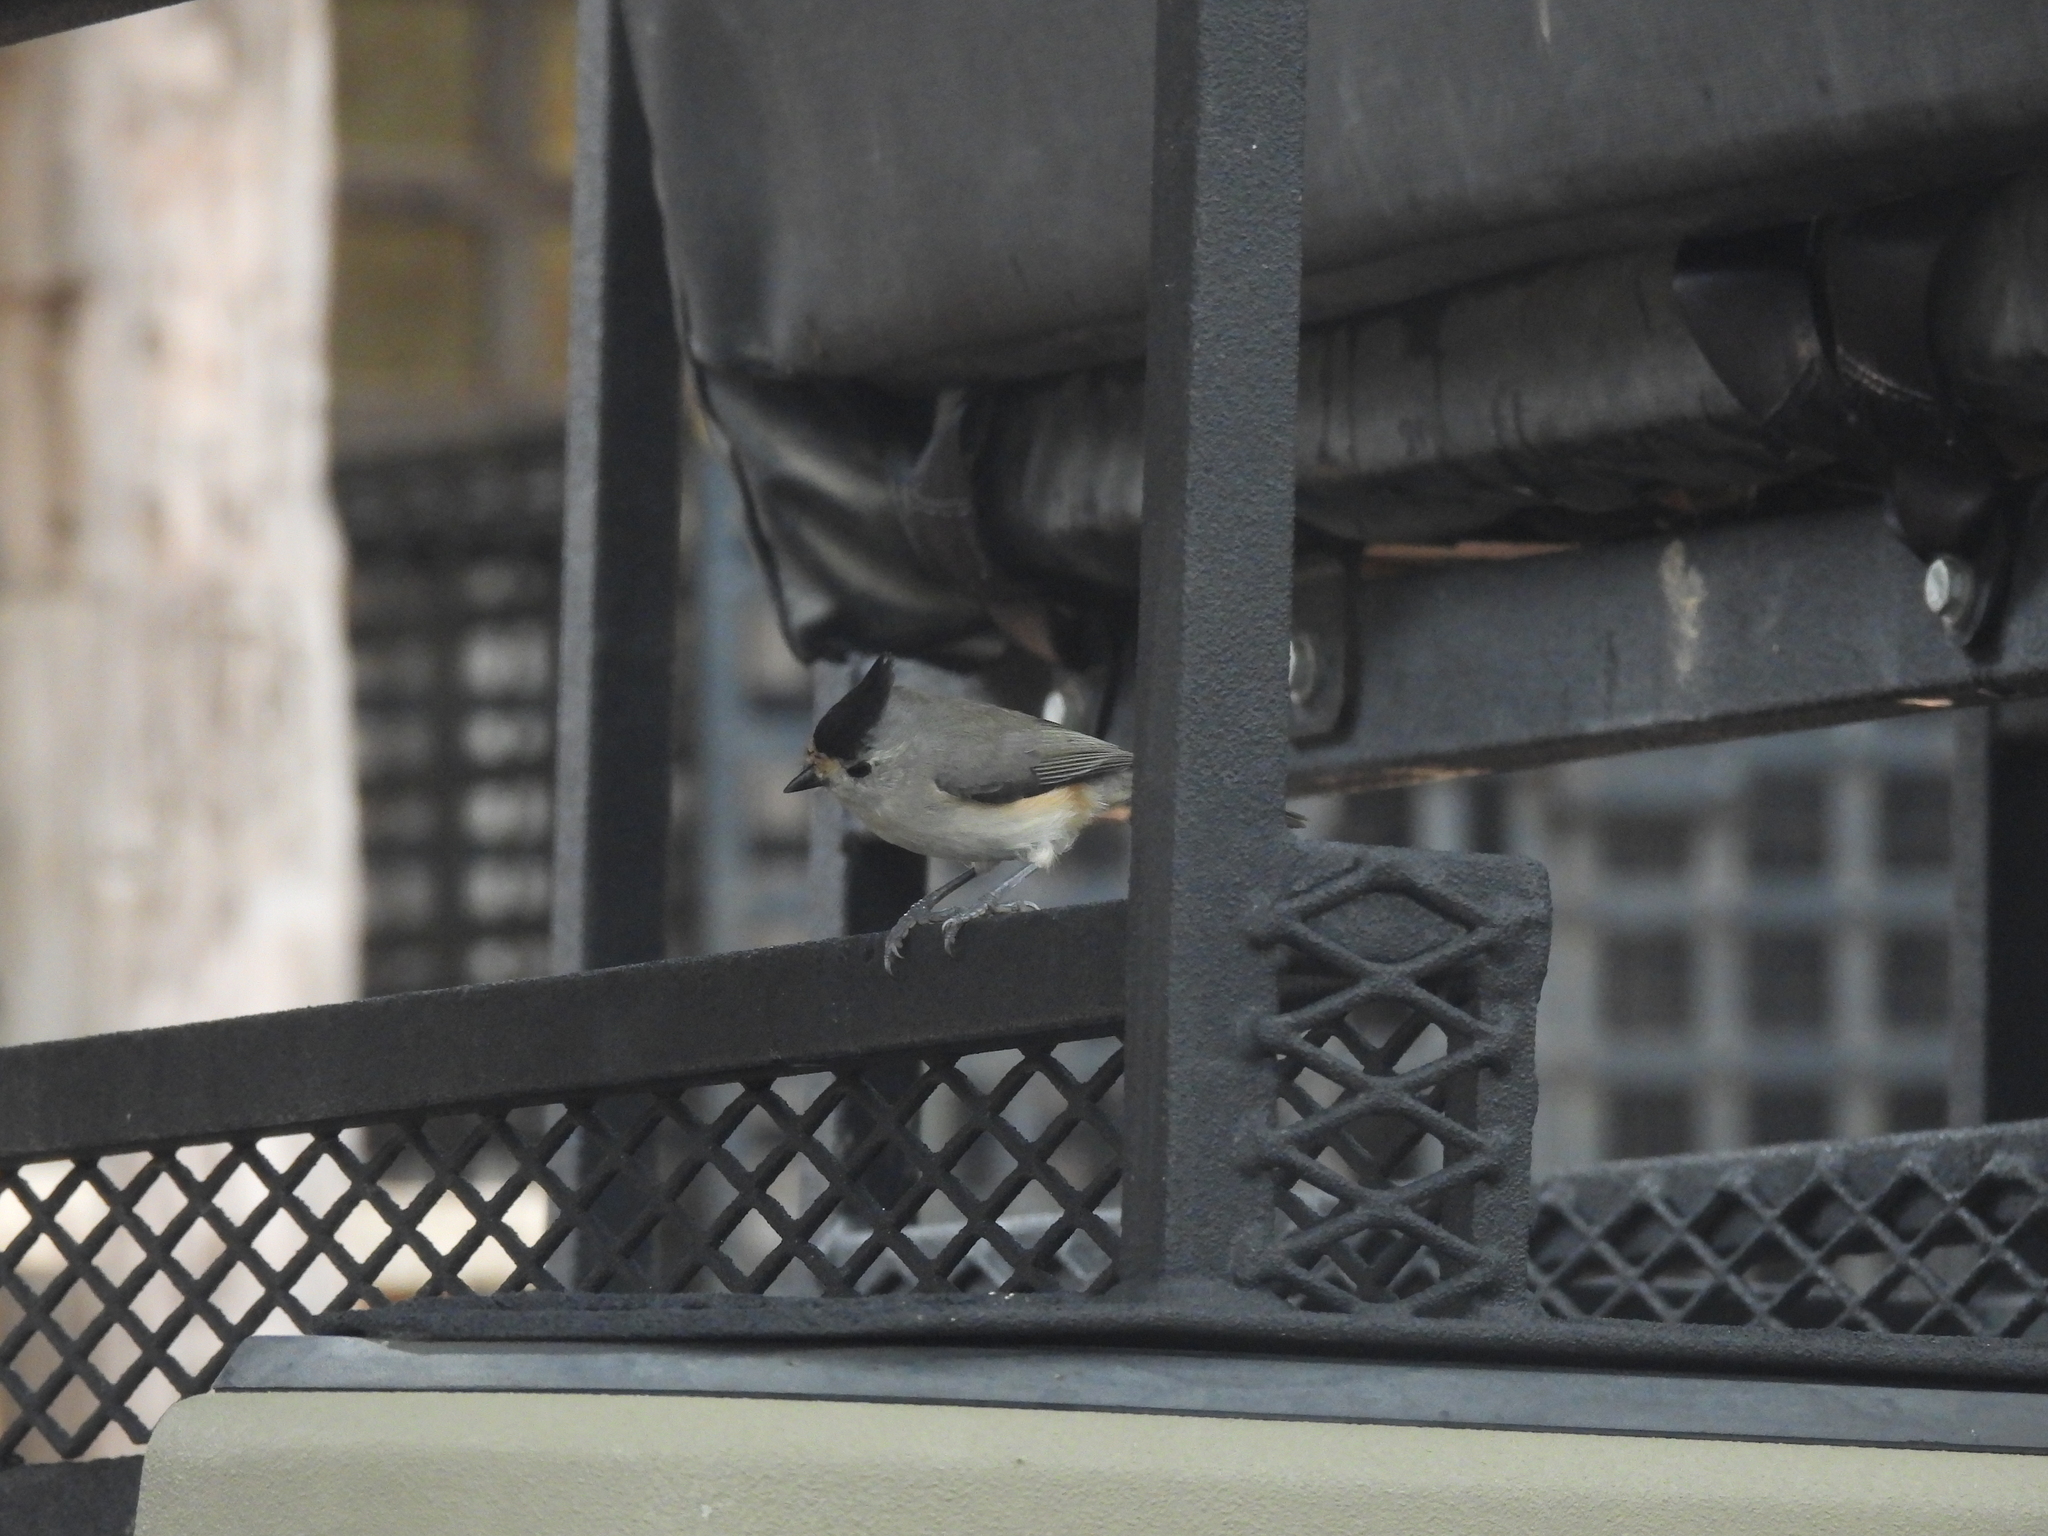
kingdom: Animalia
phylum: Chordata
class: Aves
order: Passeriformes
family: Paridae
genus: Baeolophus
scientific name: Baeolophus atricristatus
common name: Black-crested titmouse
